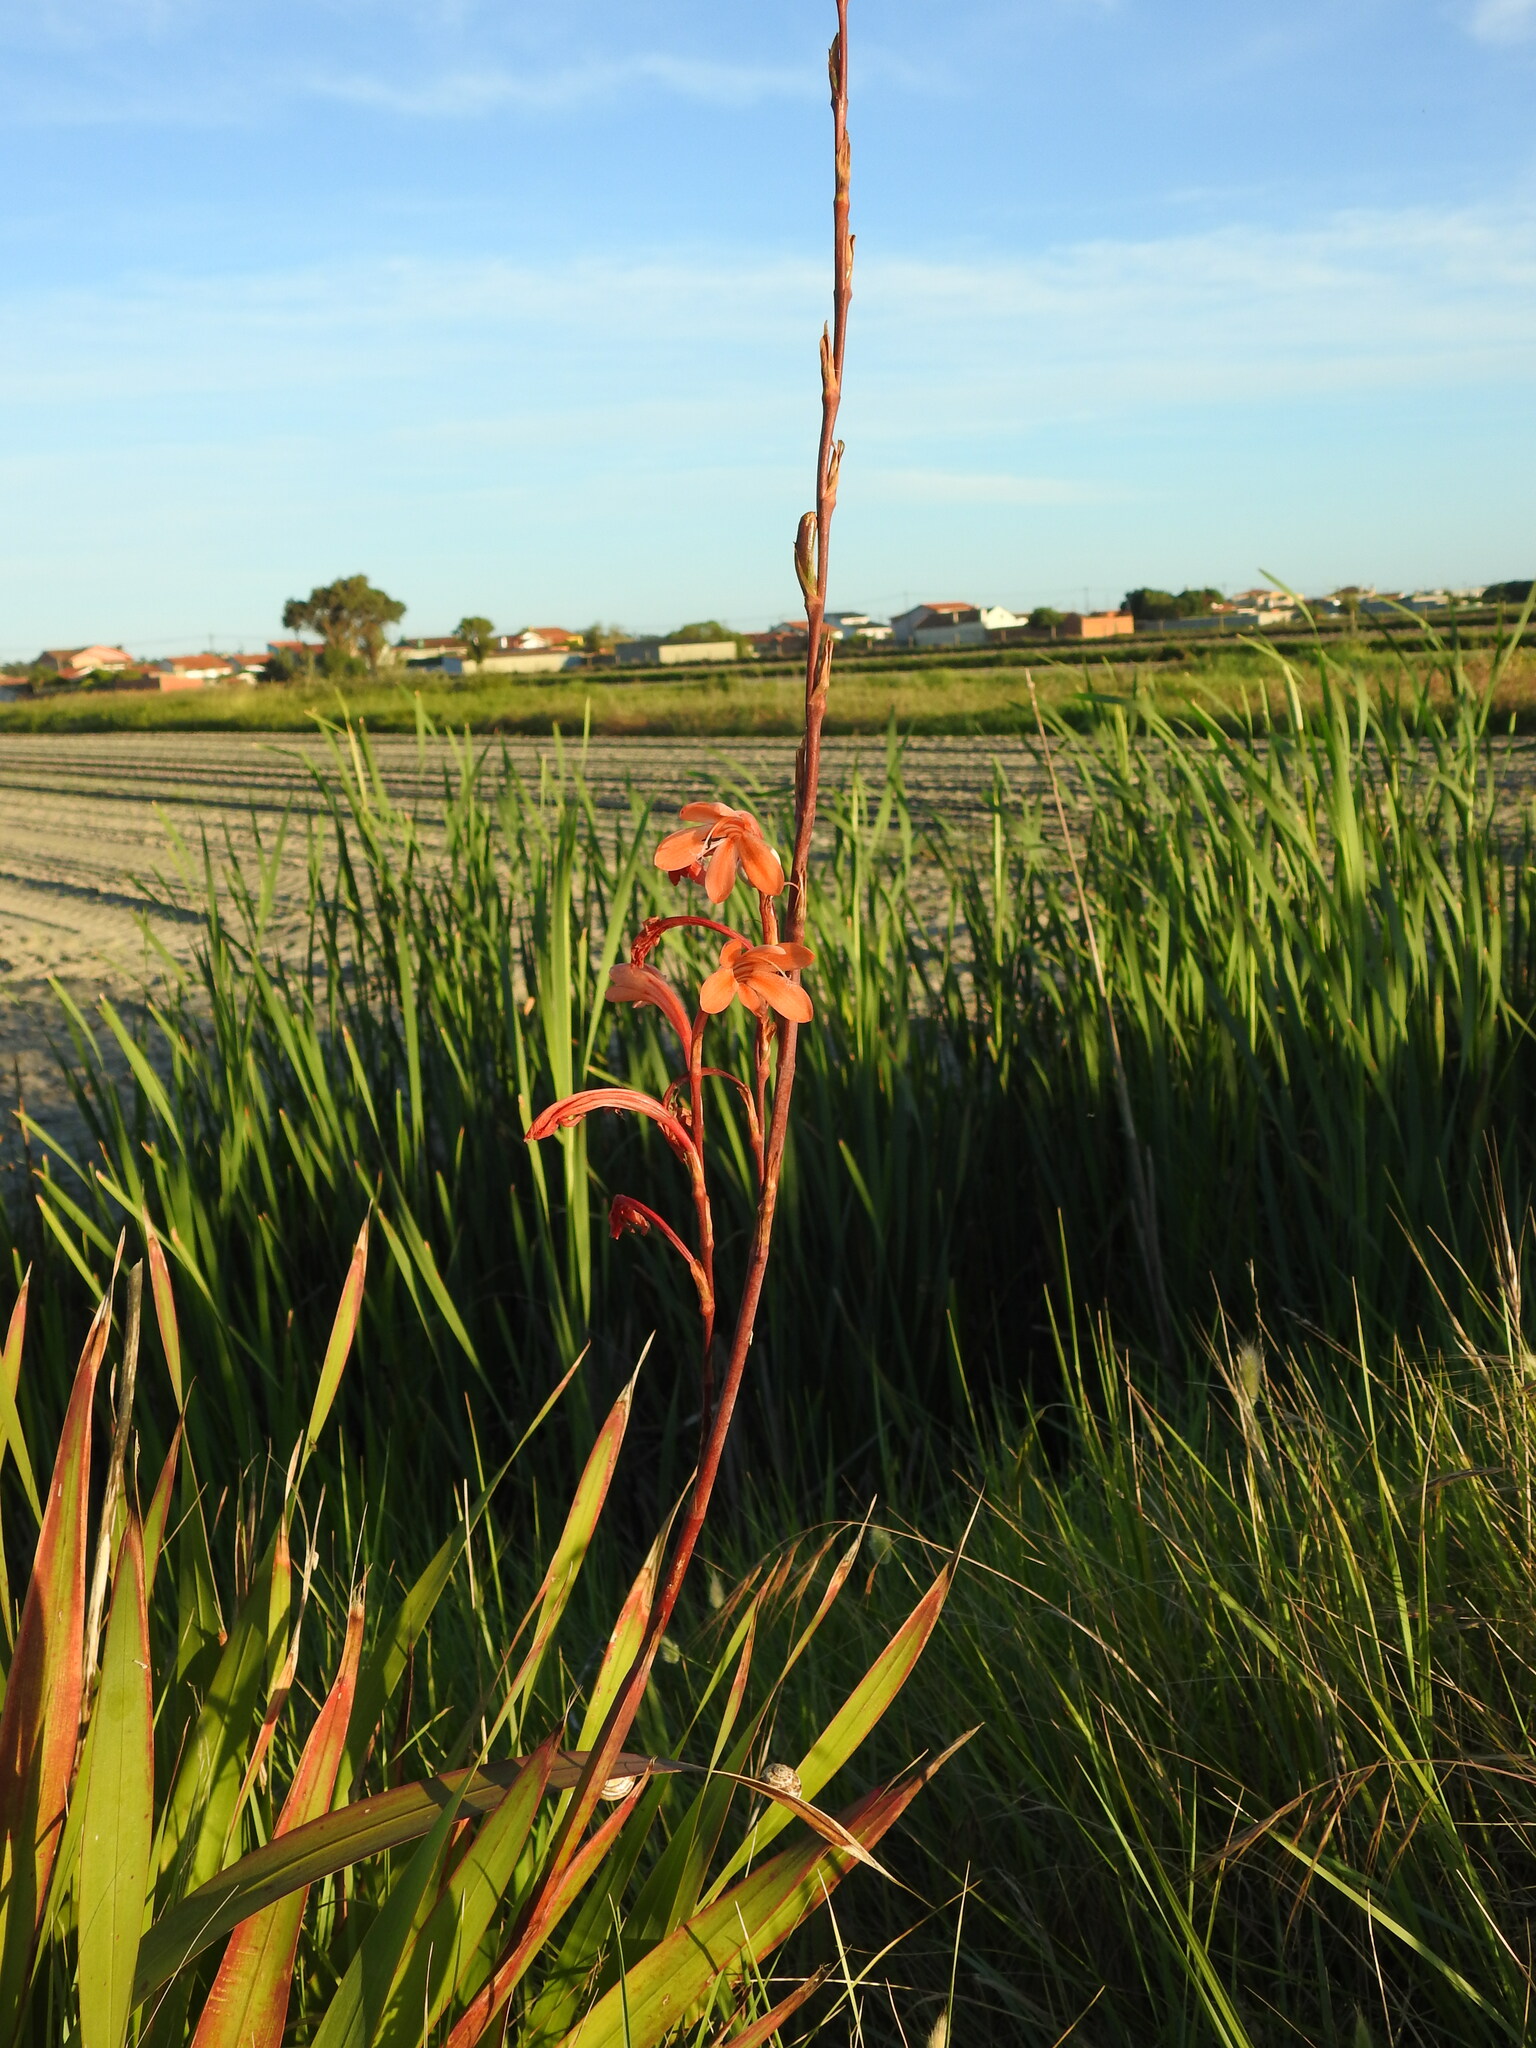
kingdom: Plantae
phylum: Tracheophyta
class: Liliopsida
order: Asparagales
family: Iridaceae
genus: Watsonia
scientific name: Watsonia meriana
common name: Bulbil bugle-lily
